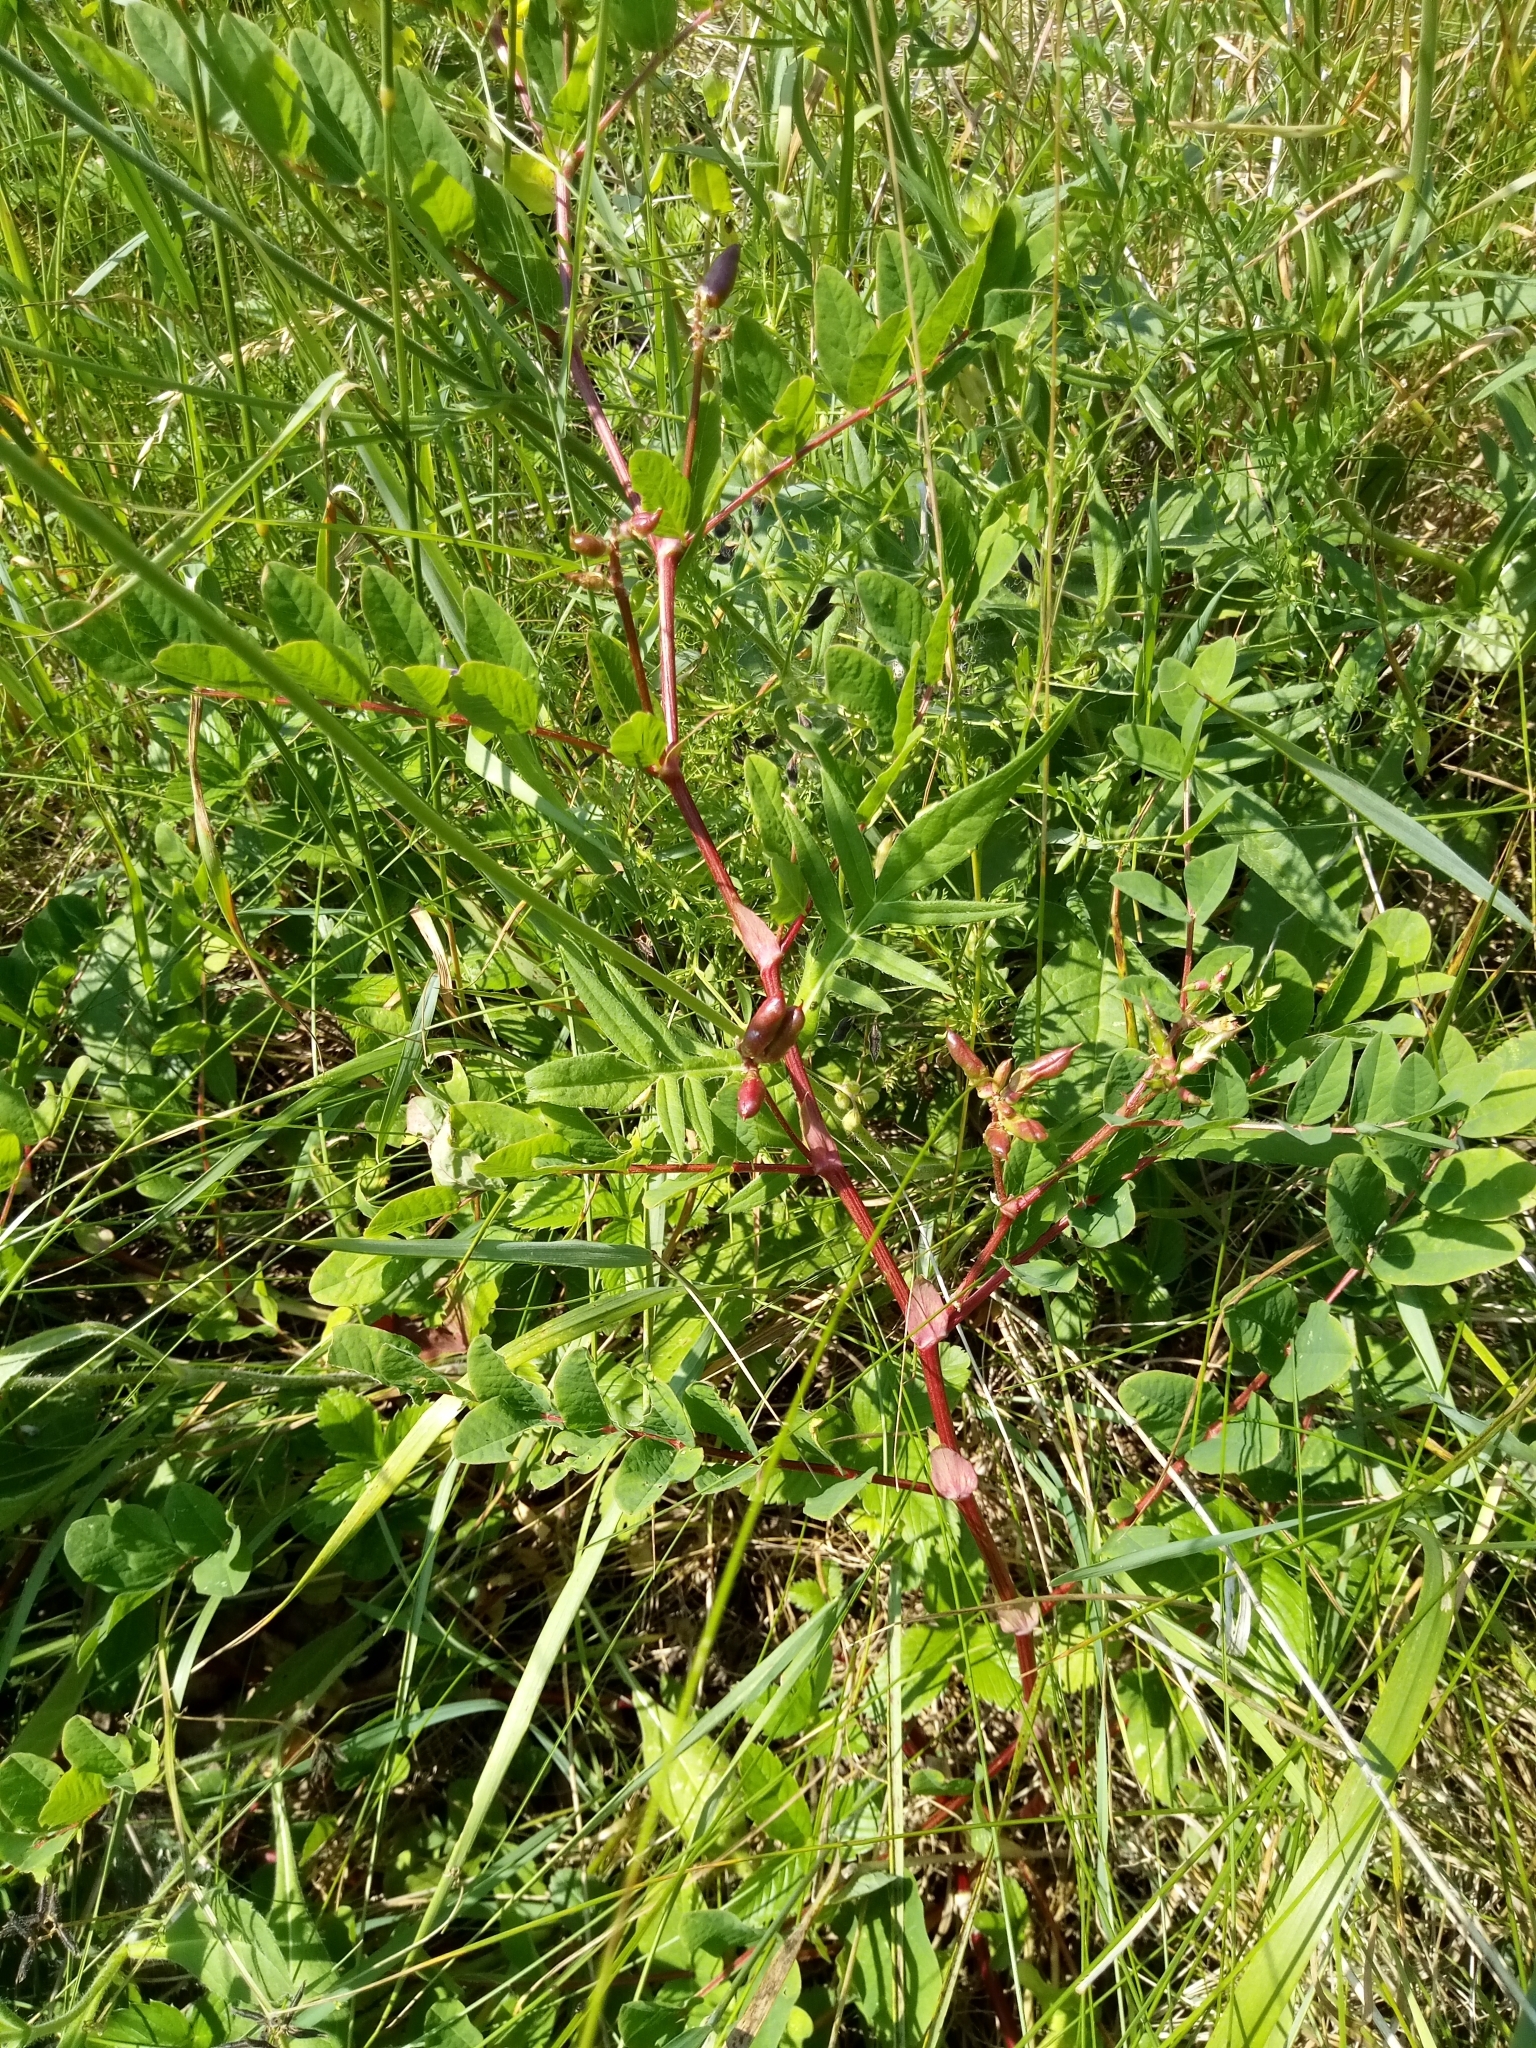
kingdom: Plantae
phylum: Tracheophyta
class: Magnoliopsida
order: Fabales
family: Fabaceae
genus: Astragalus
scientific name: Astragalus glycyphyllos
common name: Wild liquorice
